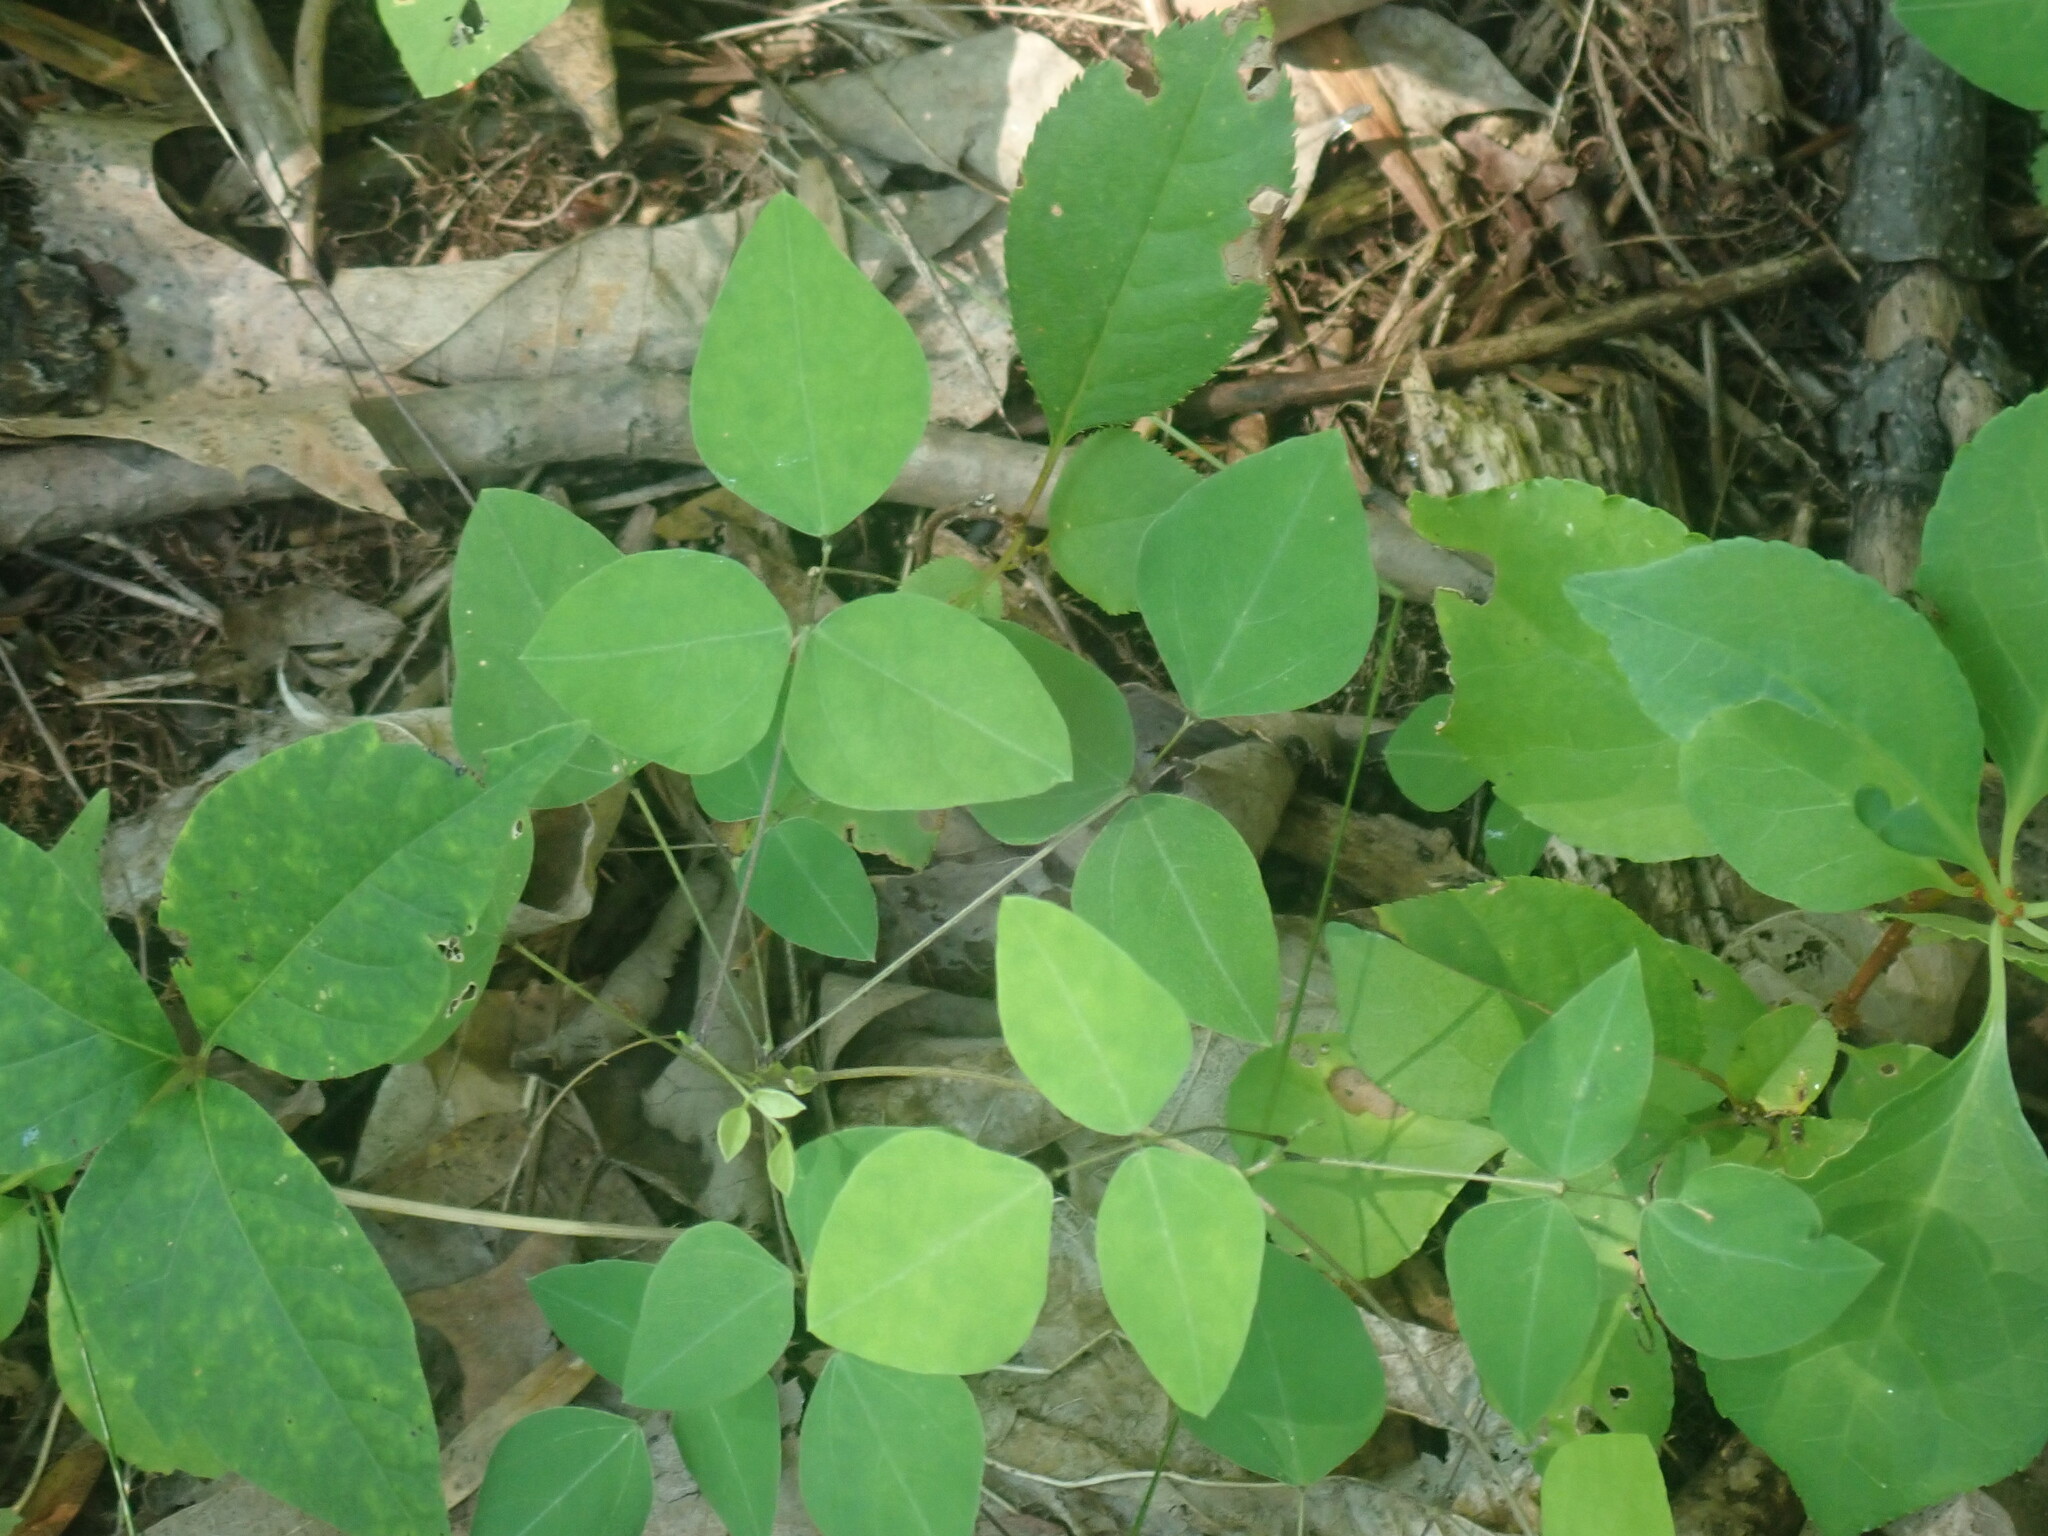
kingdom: Plantae
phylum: Tracheophyta
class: Magnoliopsida
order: Fabales
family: Fabaceae
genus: Amphicarpaea
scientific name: Amphicarpaea bracteata
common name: American hog peanut
